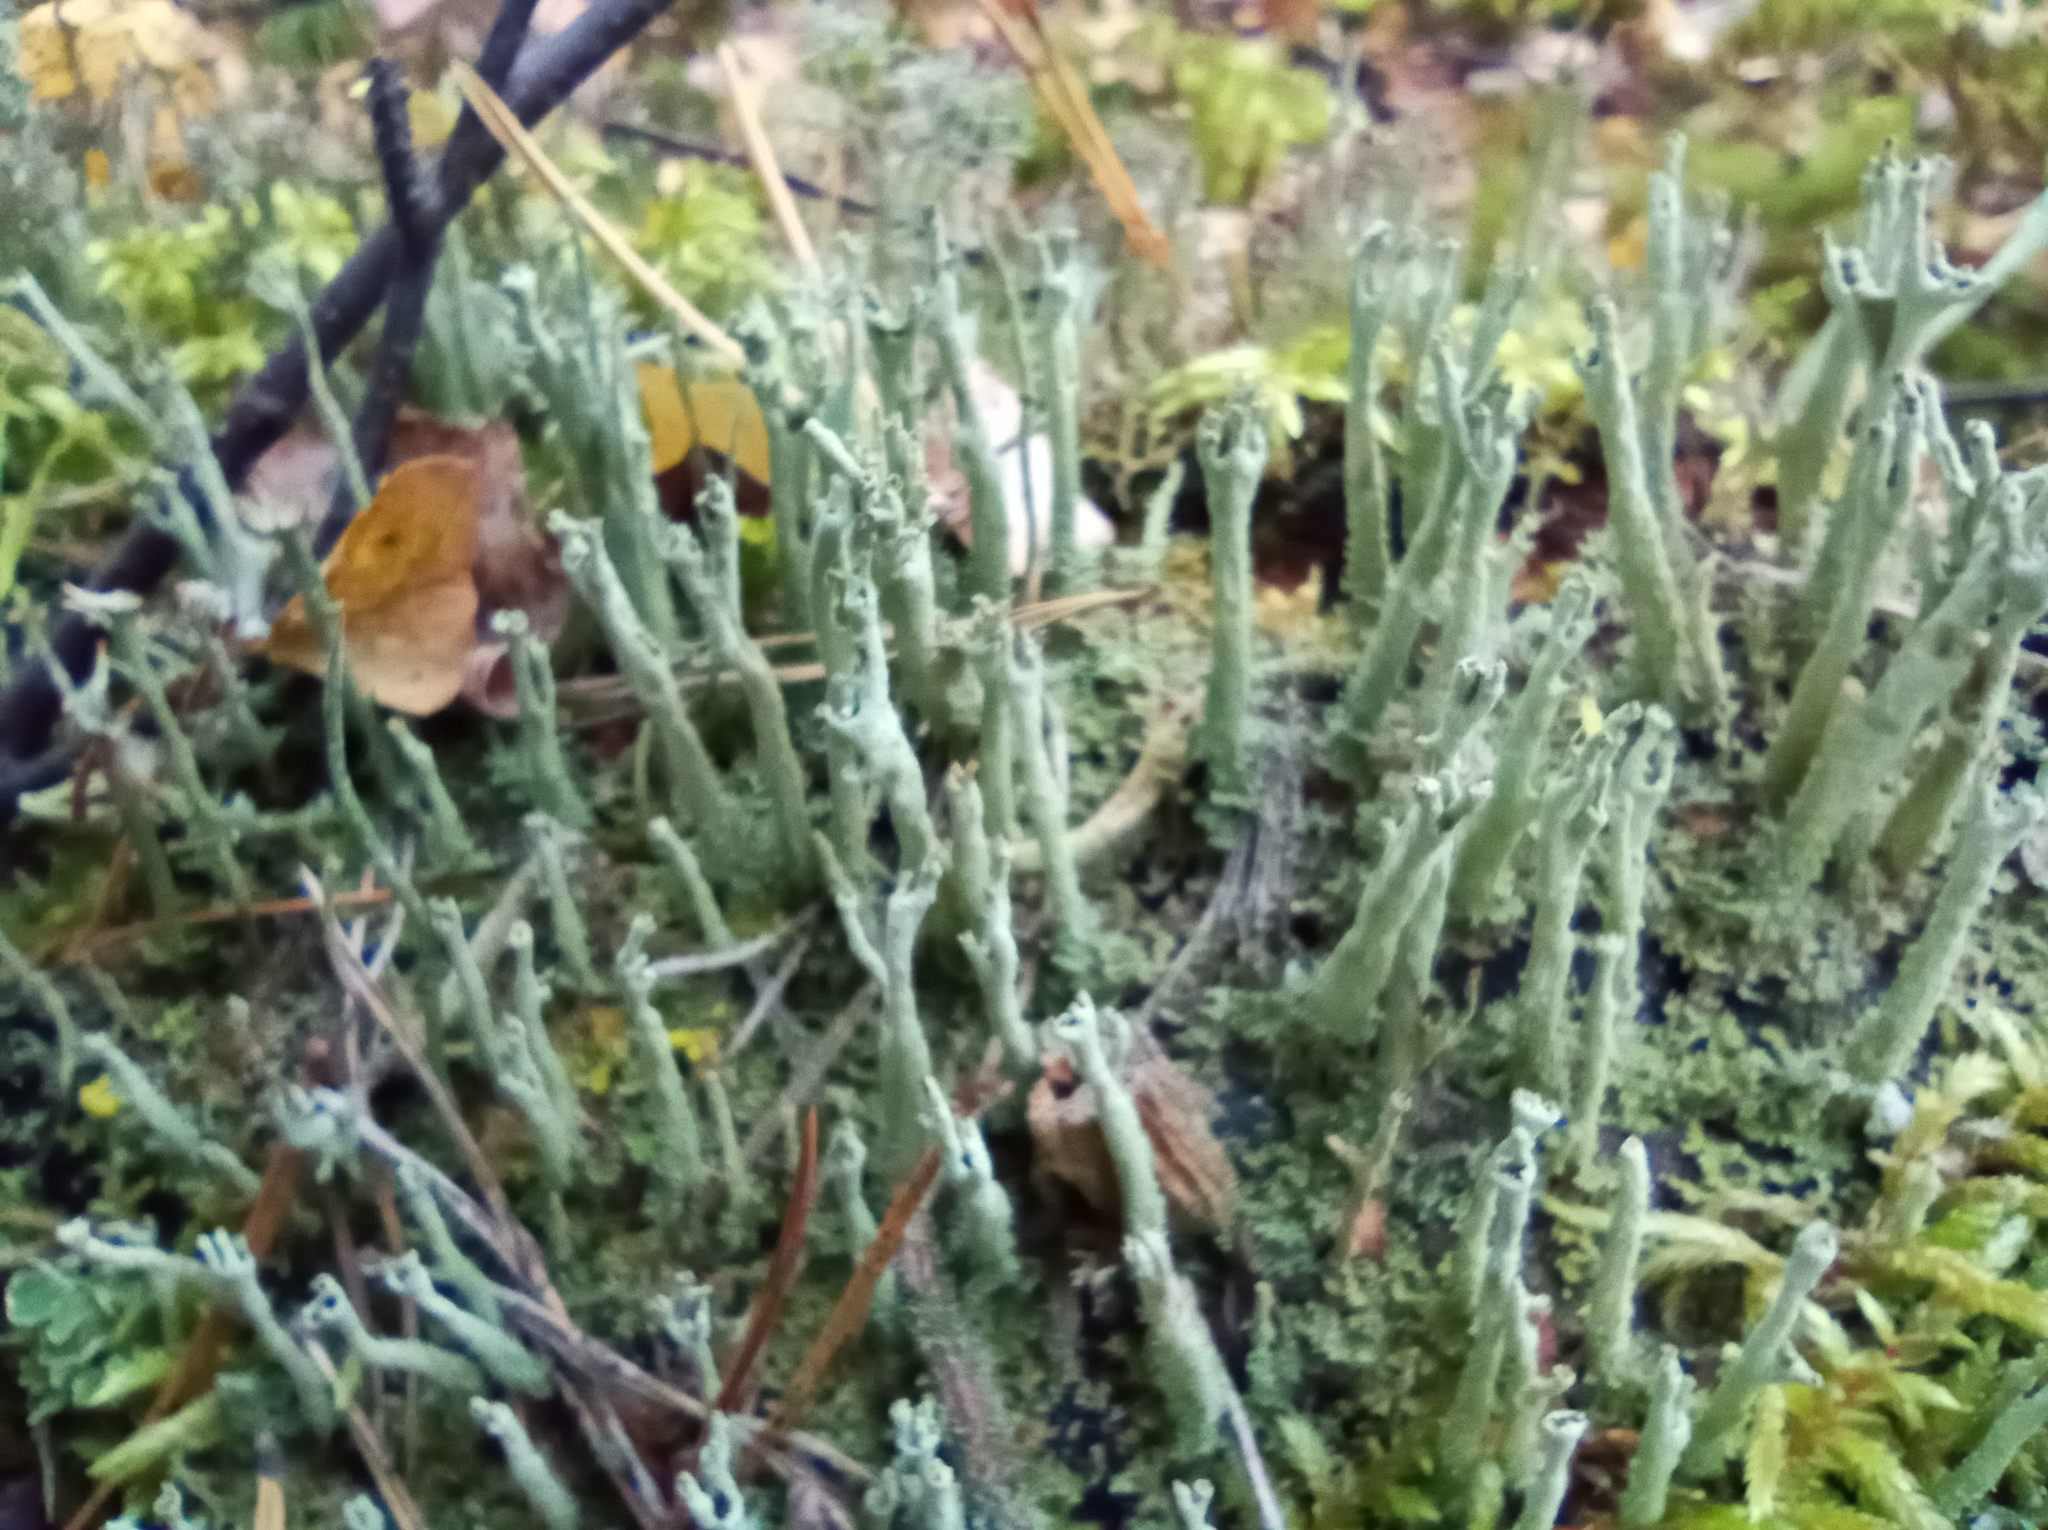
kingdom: Fungi
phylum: Ascomycota
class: Lecanoromycetes
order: Lecanorales
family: Cladoniaceae
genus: Cladonia
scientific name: Cladonia subulata
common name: Antlered powderhorn
